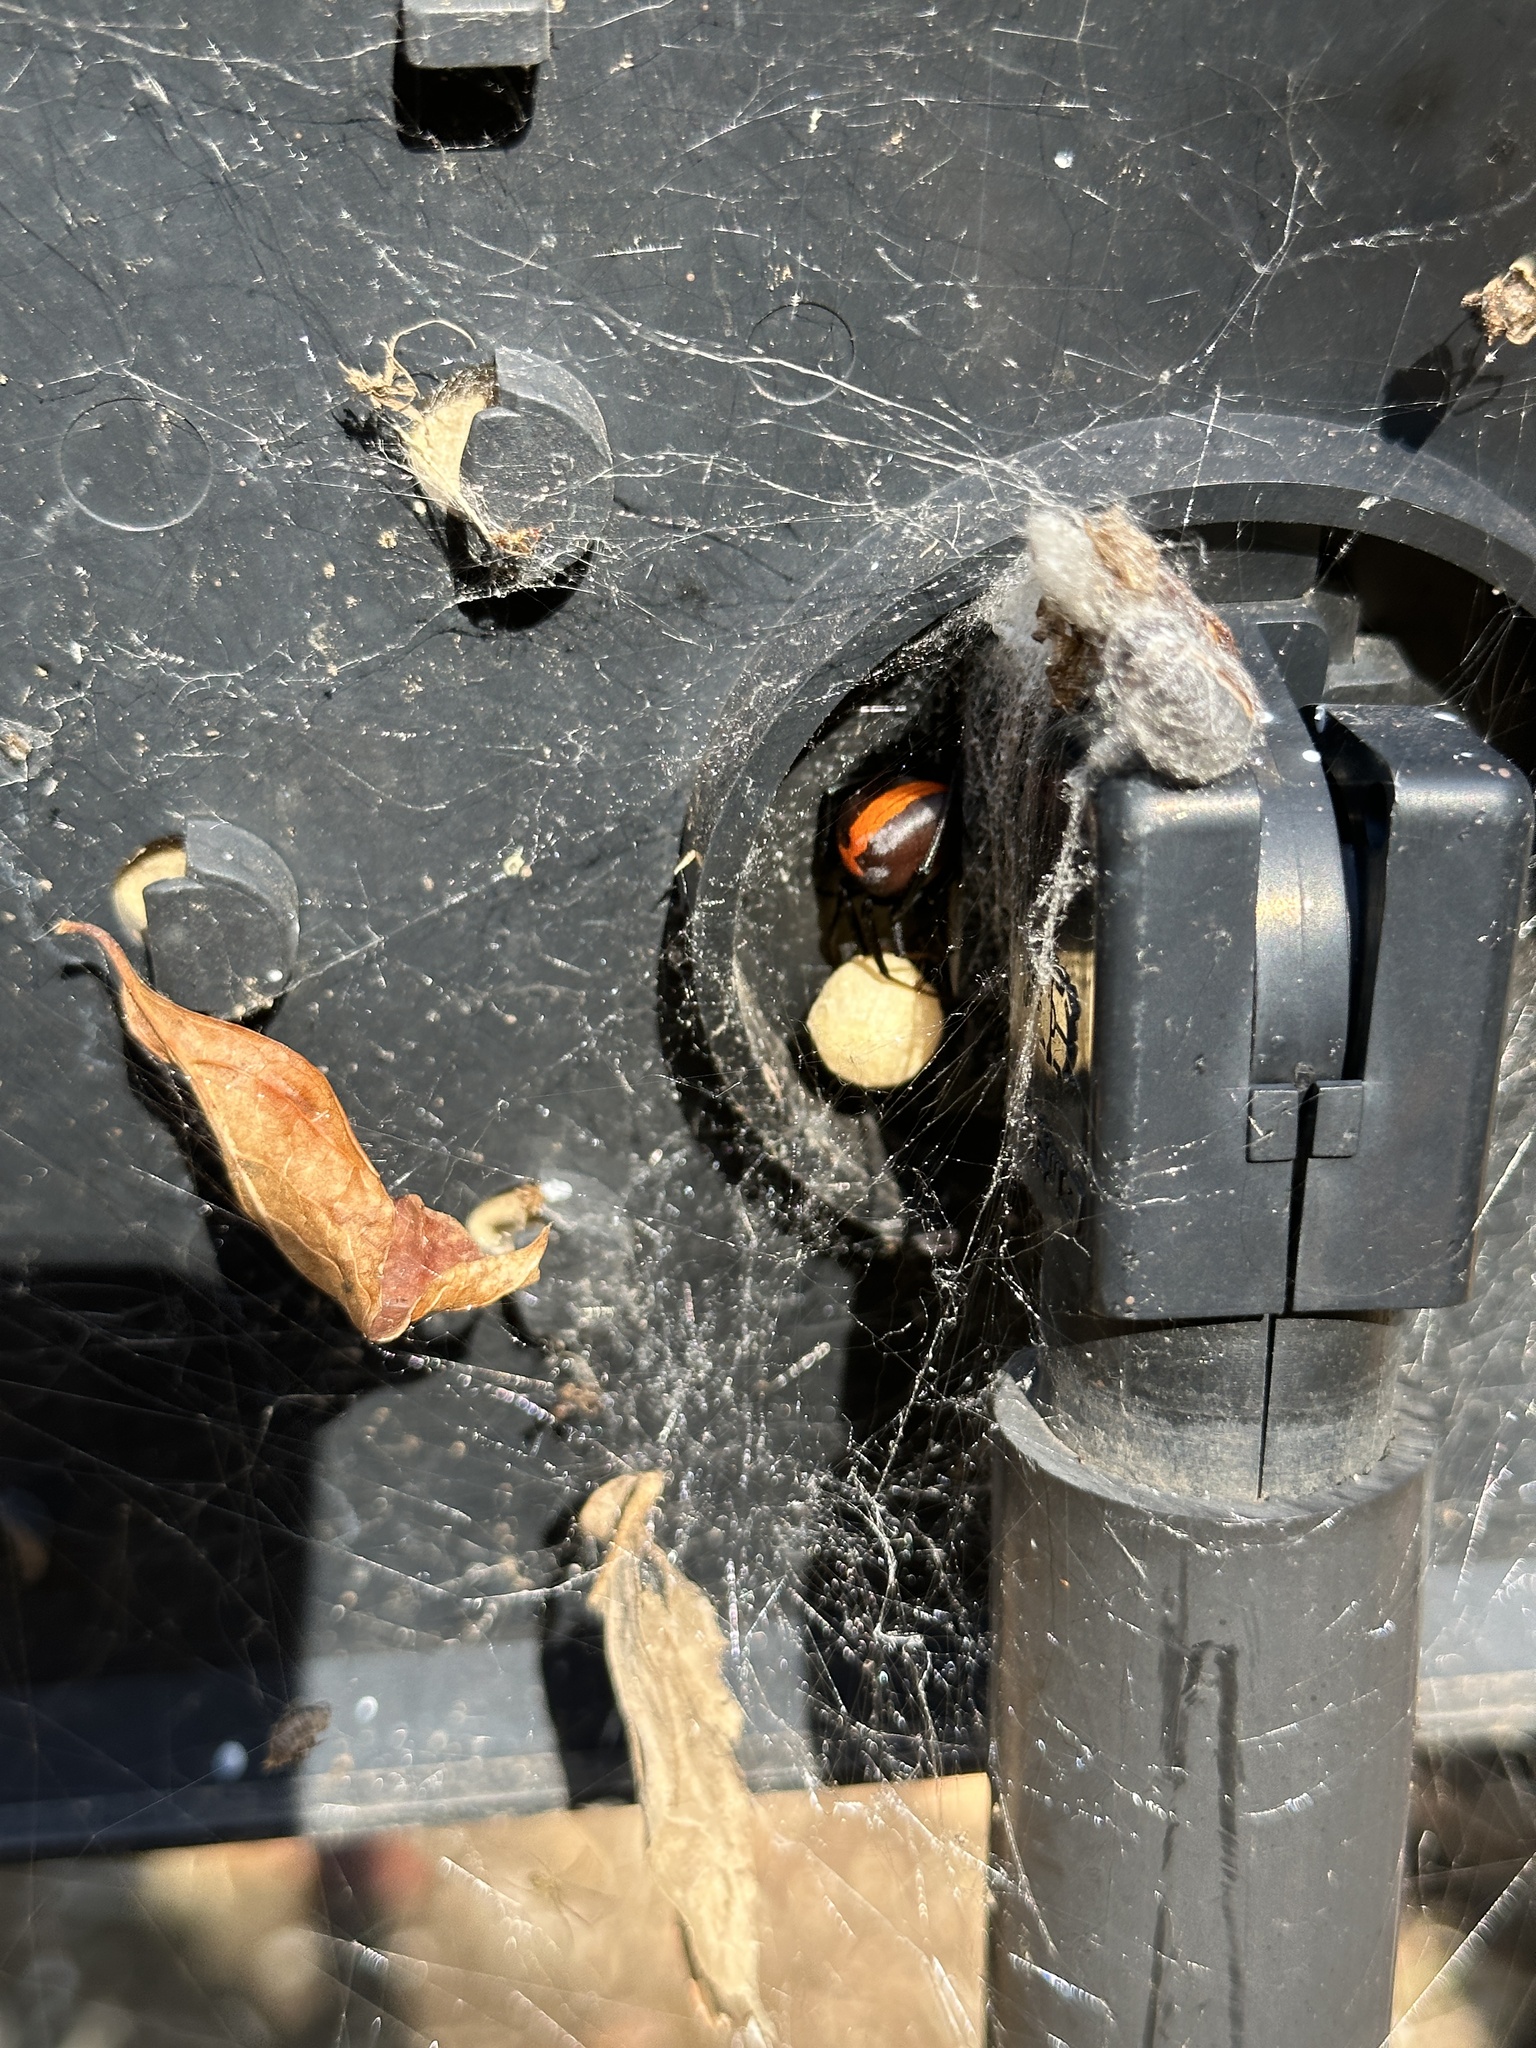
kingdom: Animalia
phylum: Arthropoda
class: Arachnida
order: Araneae
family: Theridiidae
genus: Latrodectus
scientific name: Latrodectus hasselti
